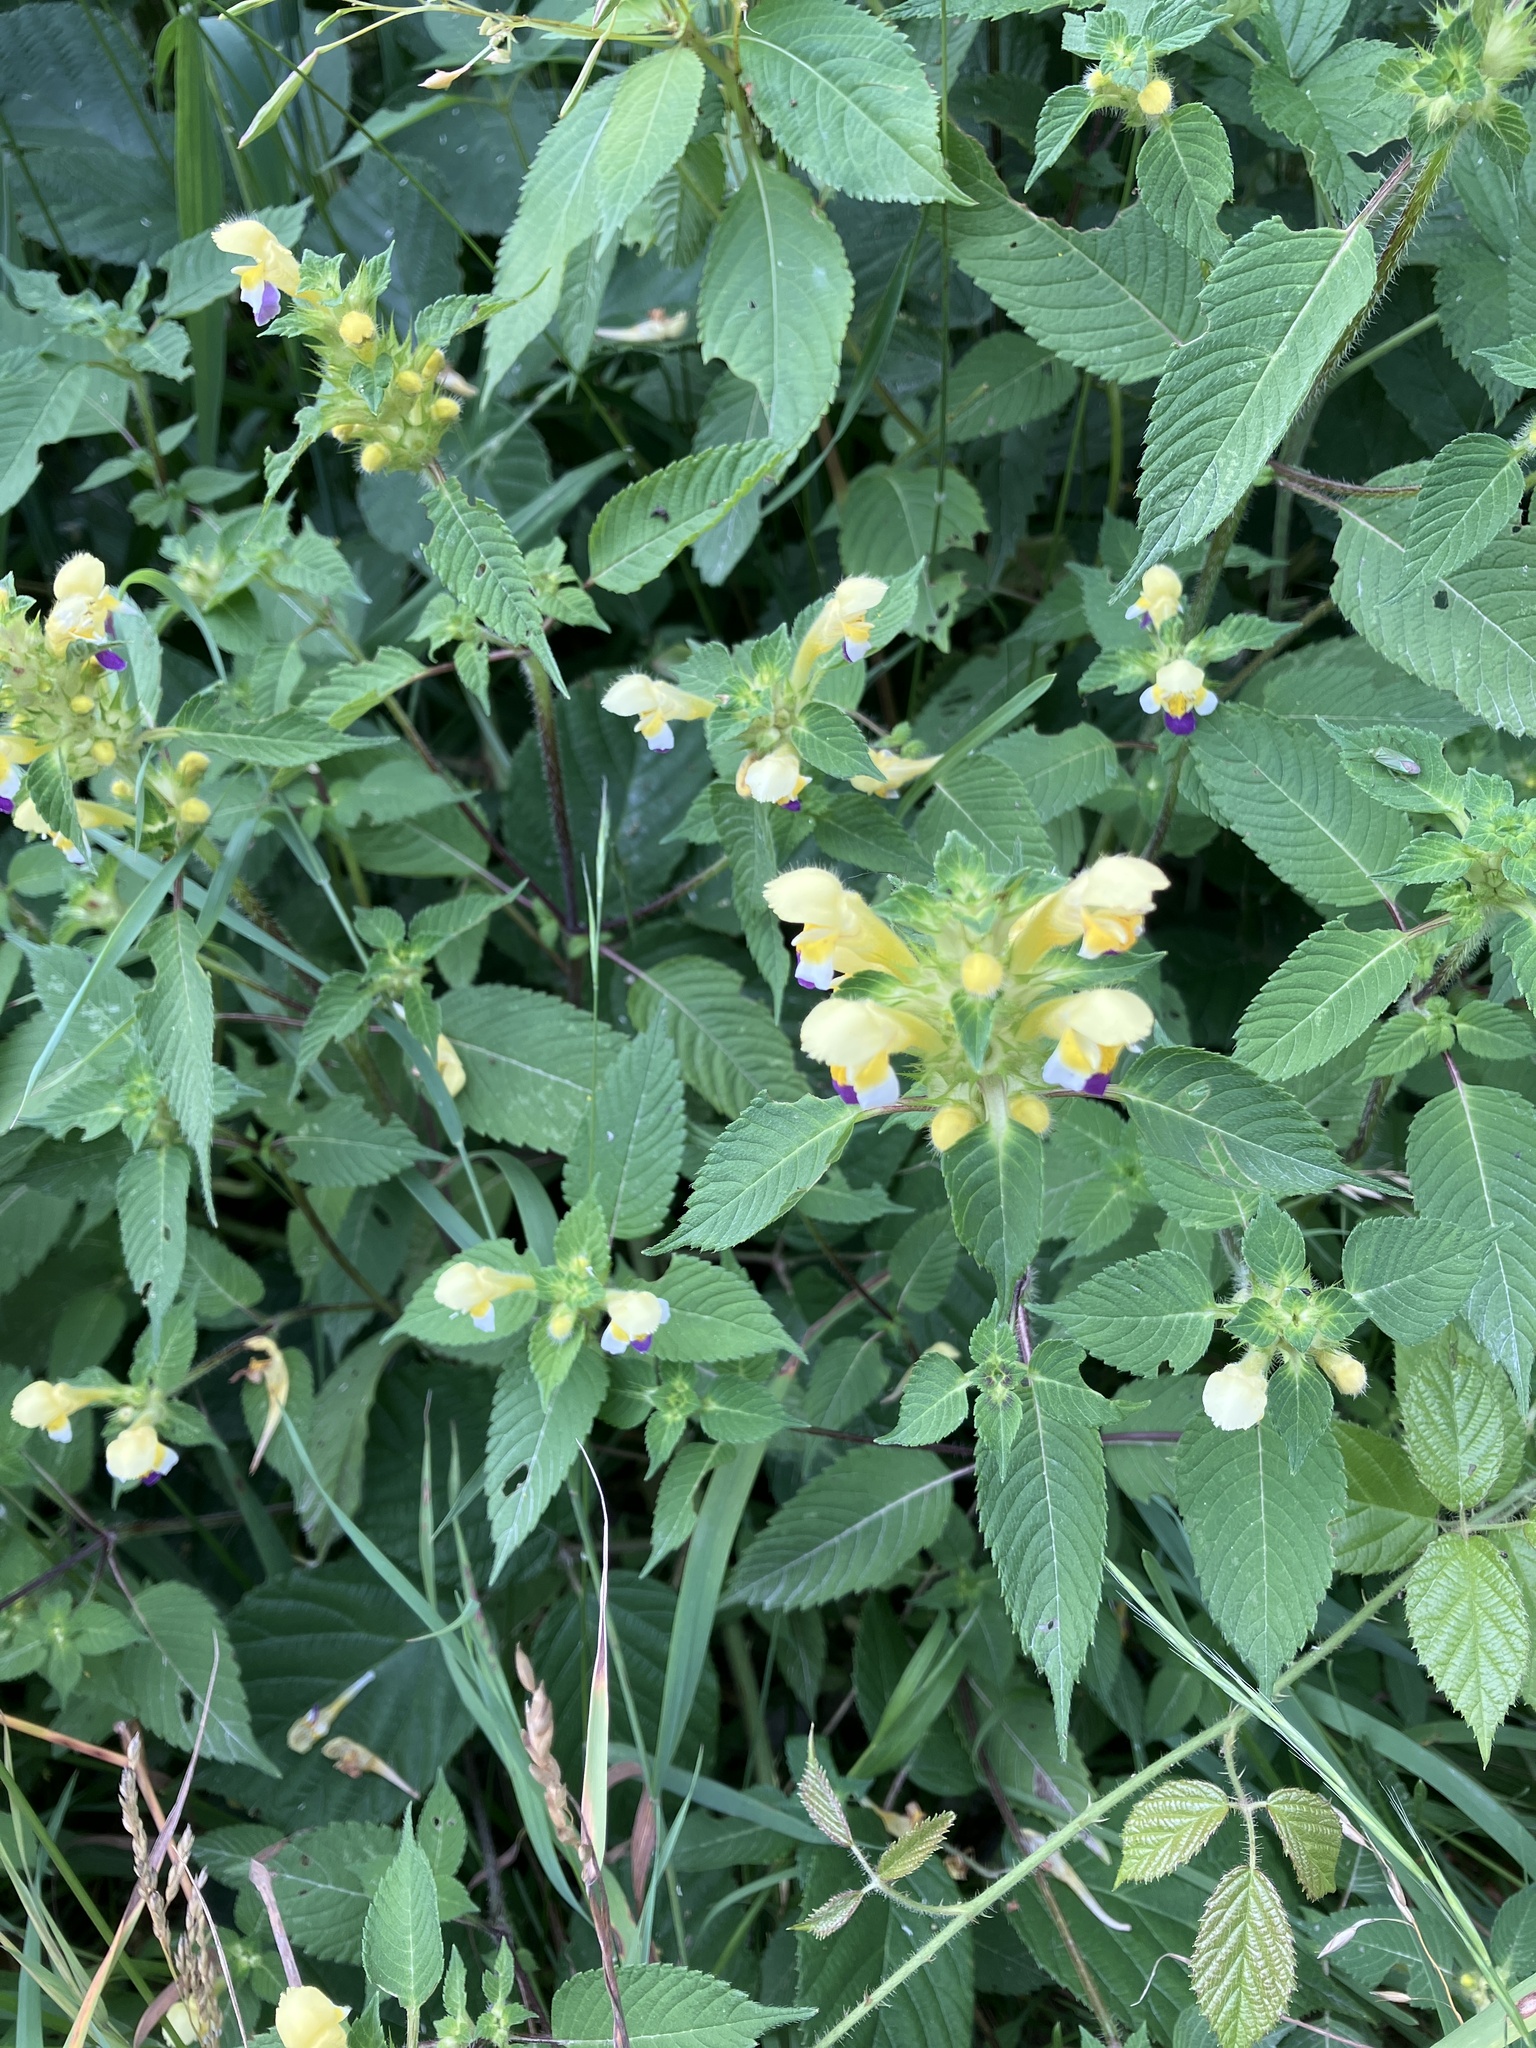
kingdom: Plantae
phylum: Tracheophyta
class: Magnoliopsida
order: Lamiales
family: Lamiaceae
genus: Galeopsis
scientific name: Galeopsis speciosa
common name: Large-flowered hemp-nettle
